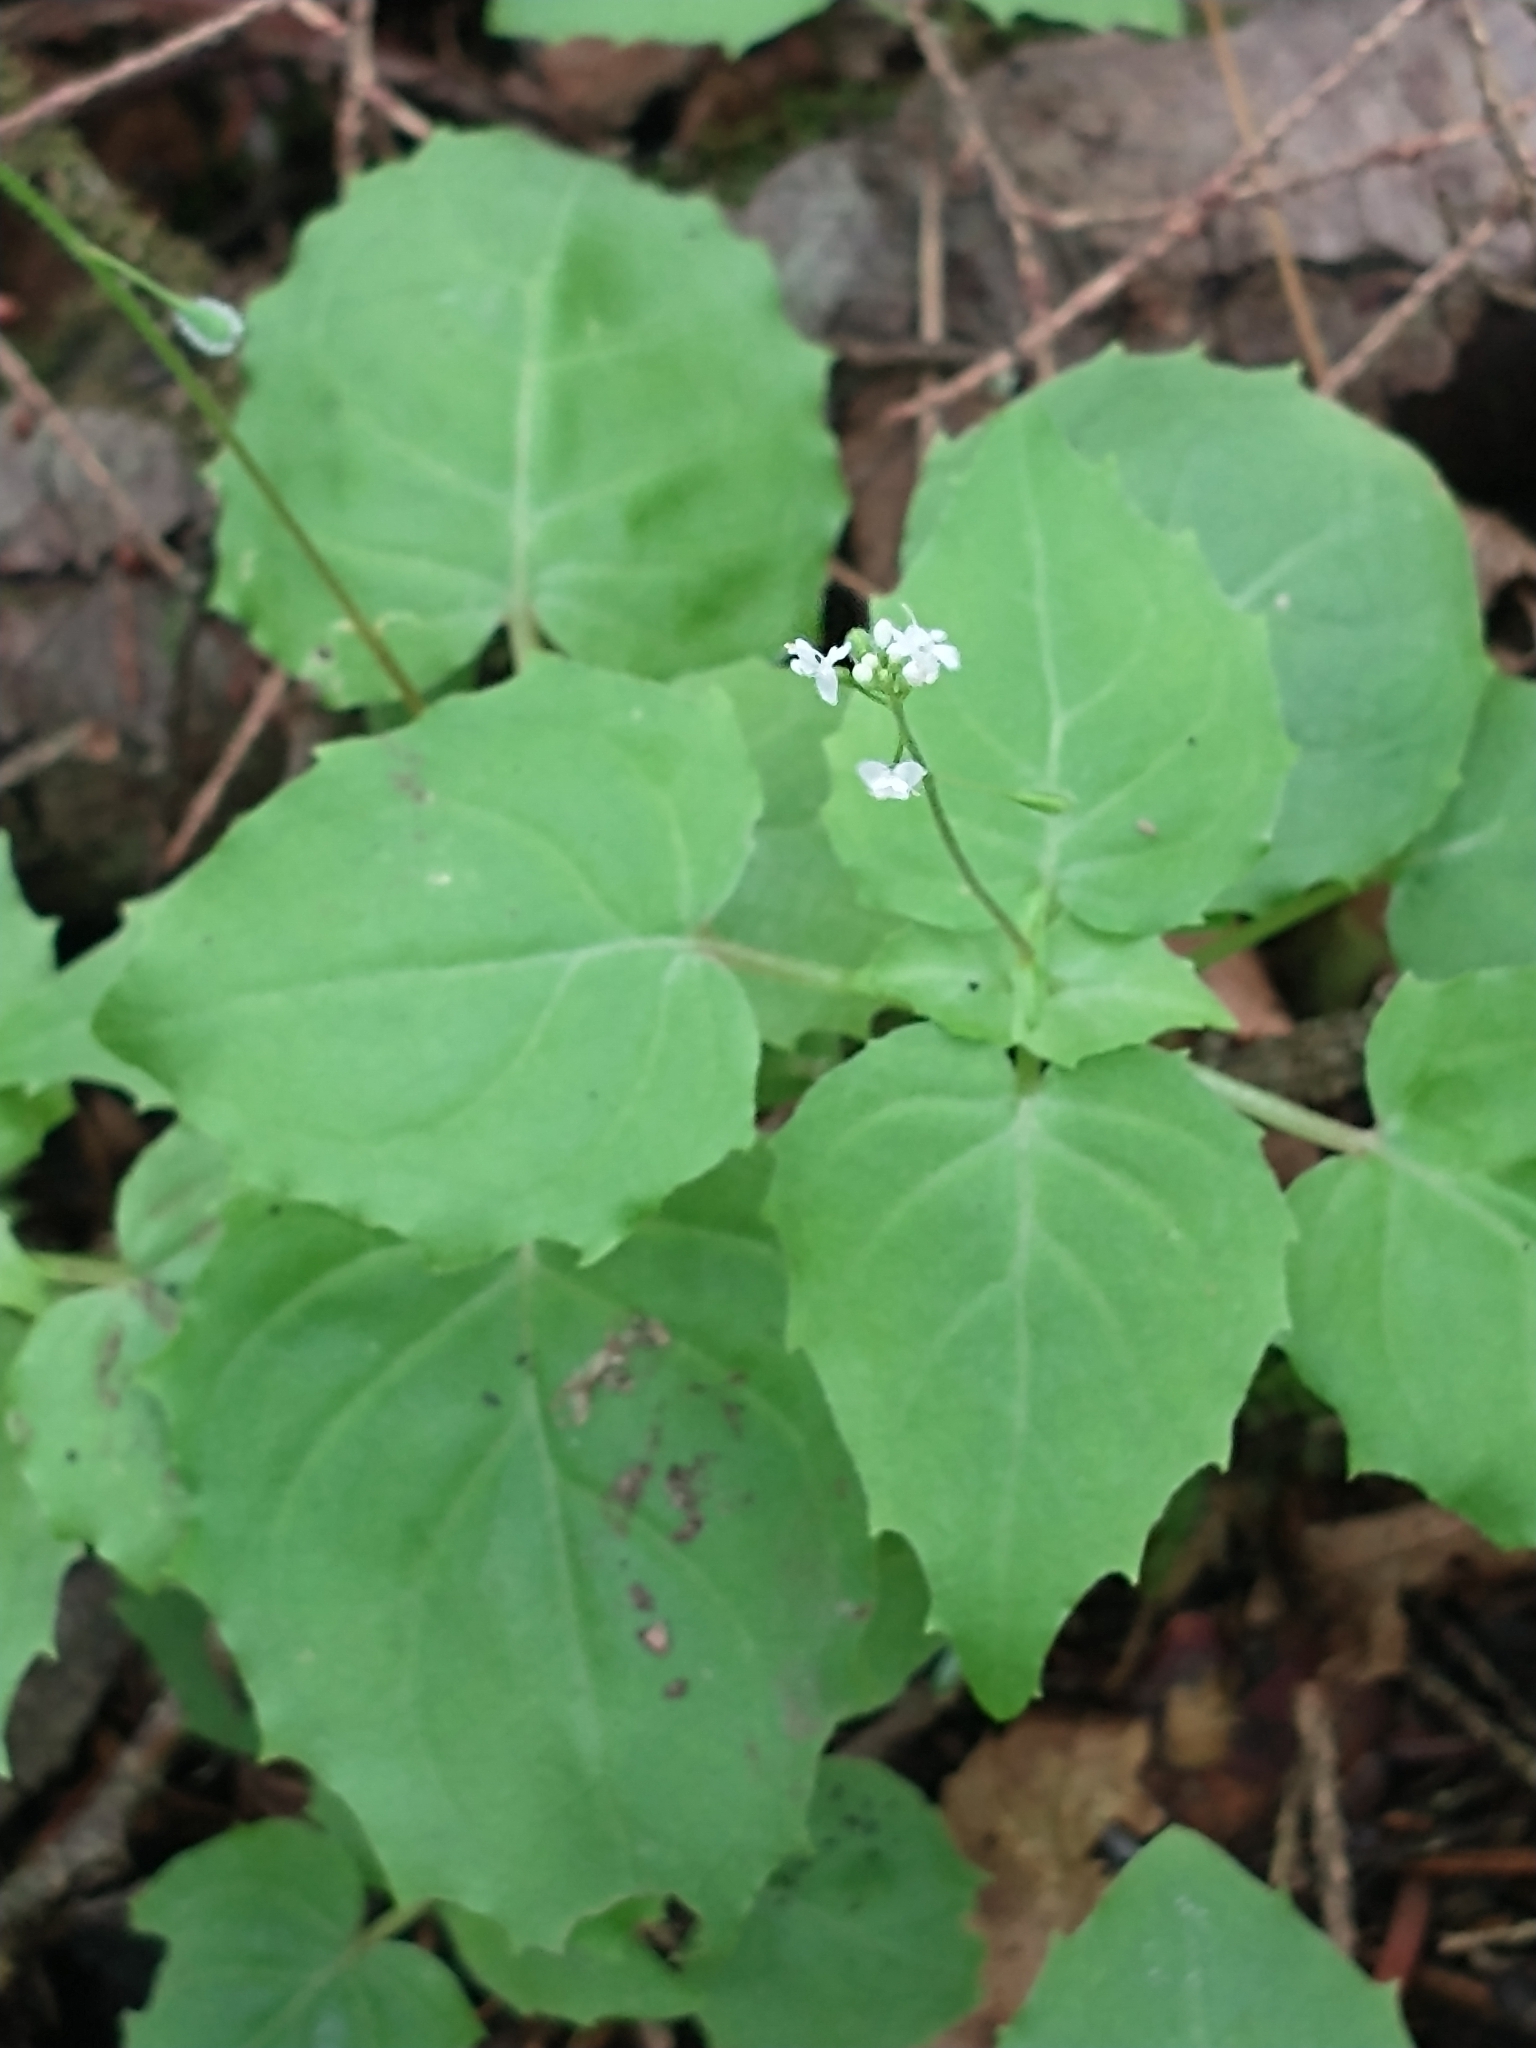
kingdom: Plantae
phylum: Tracheophyta
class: Magnoliopsida
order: Myrtales
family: Onagraceae
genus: Circaea
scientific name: Circaea alpina
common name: Alpine enchanter's-nightshade
